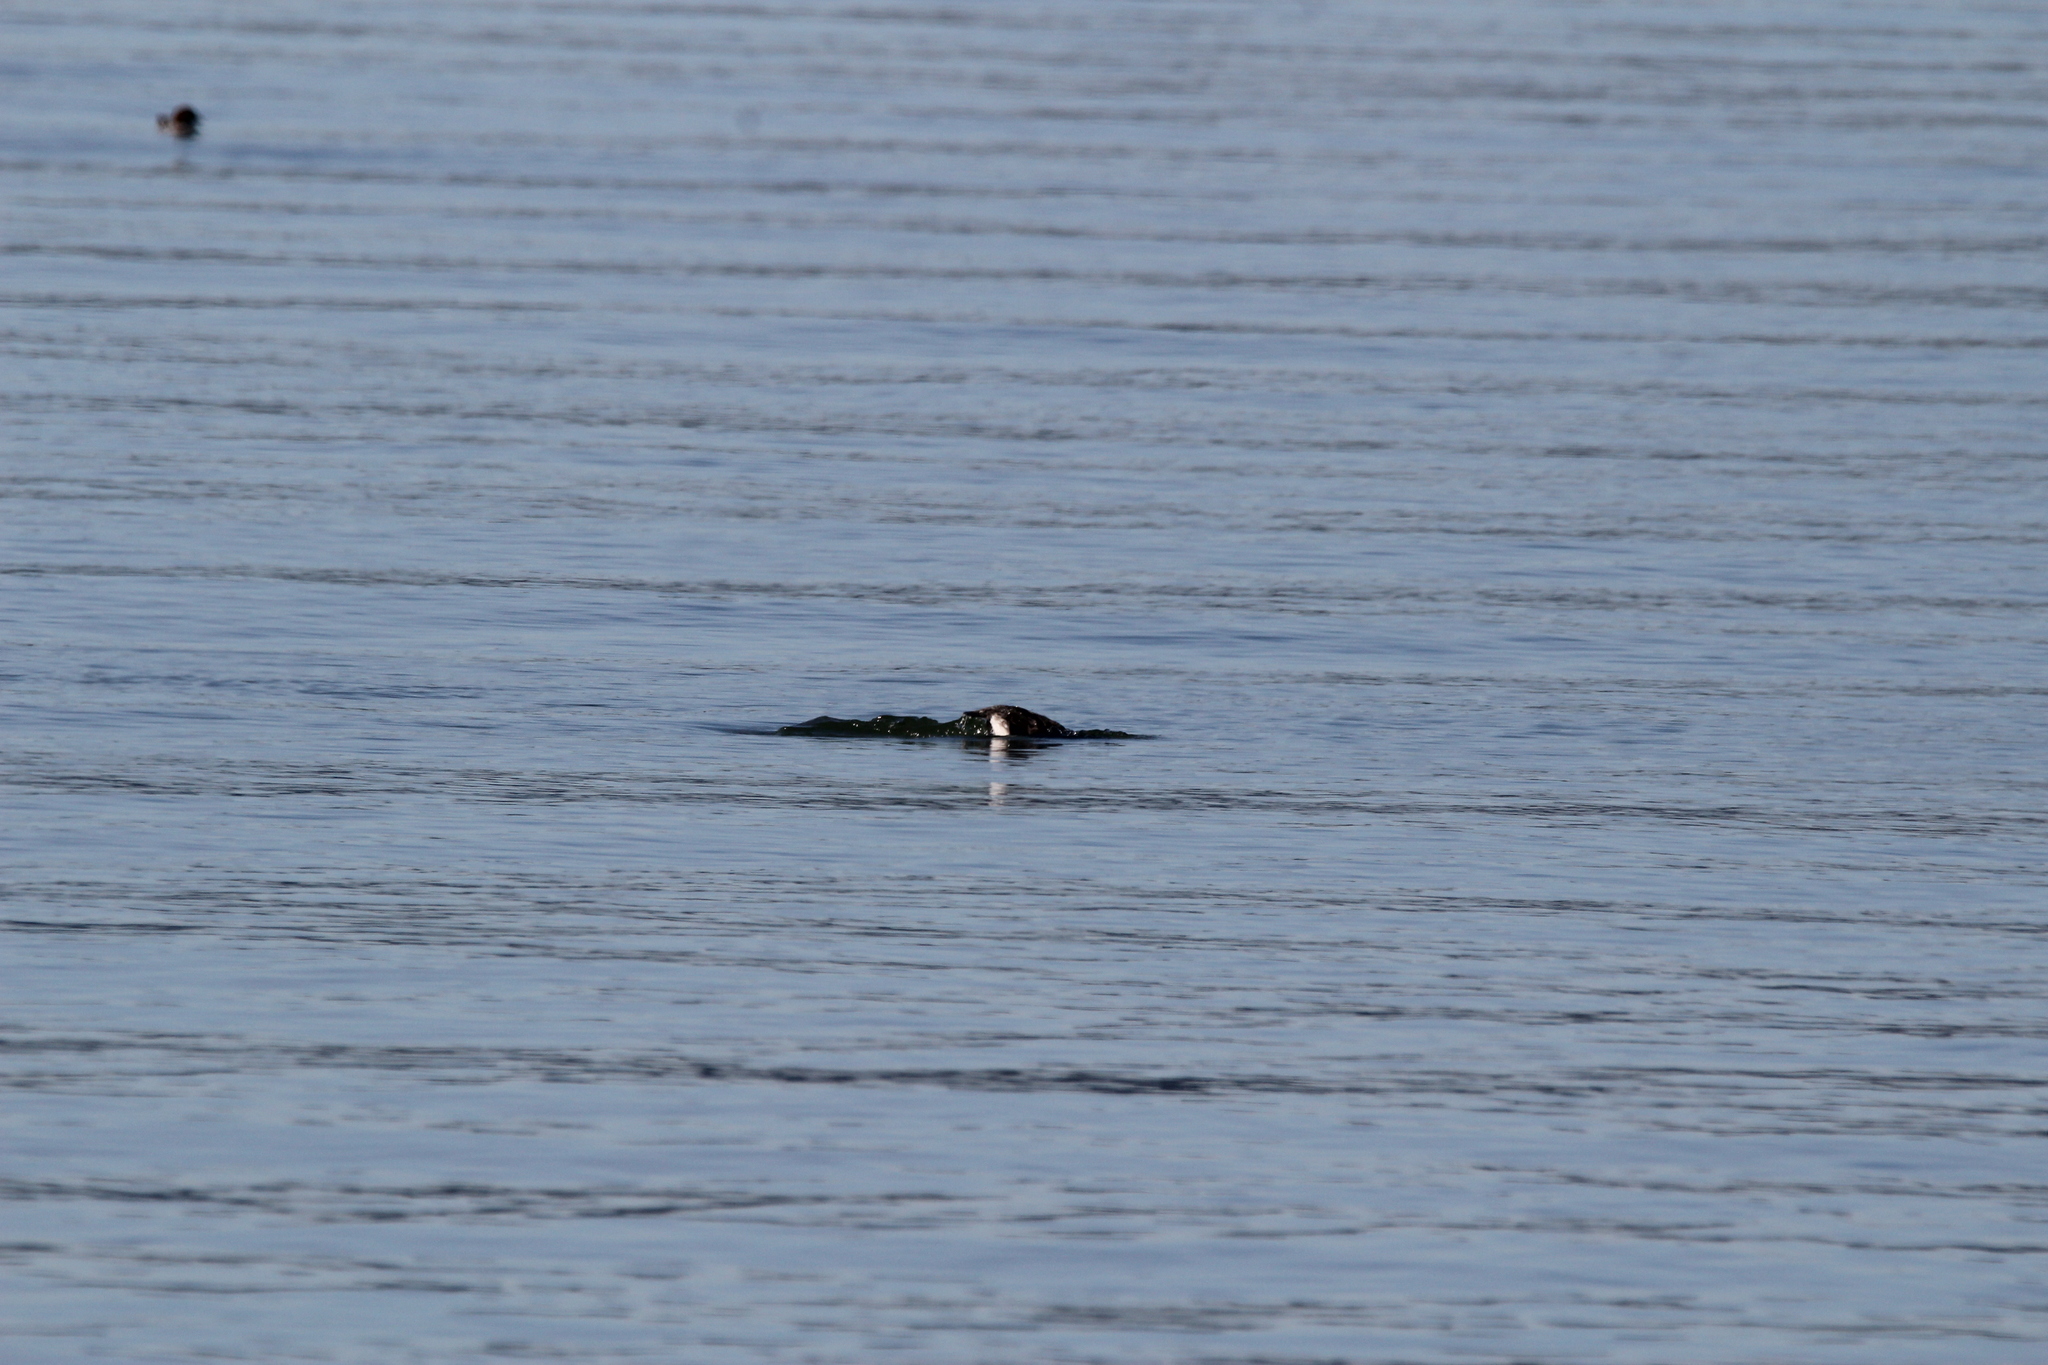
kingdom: Animalia
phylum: Chordata
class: Aves
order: Gaviiformes
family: Gaviidae
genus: Gavia
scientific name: Gavia immer
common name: Common loon
